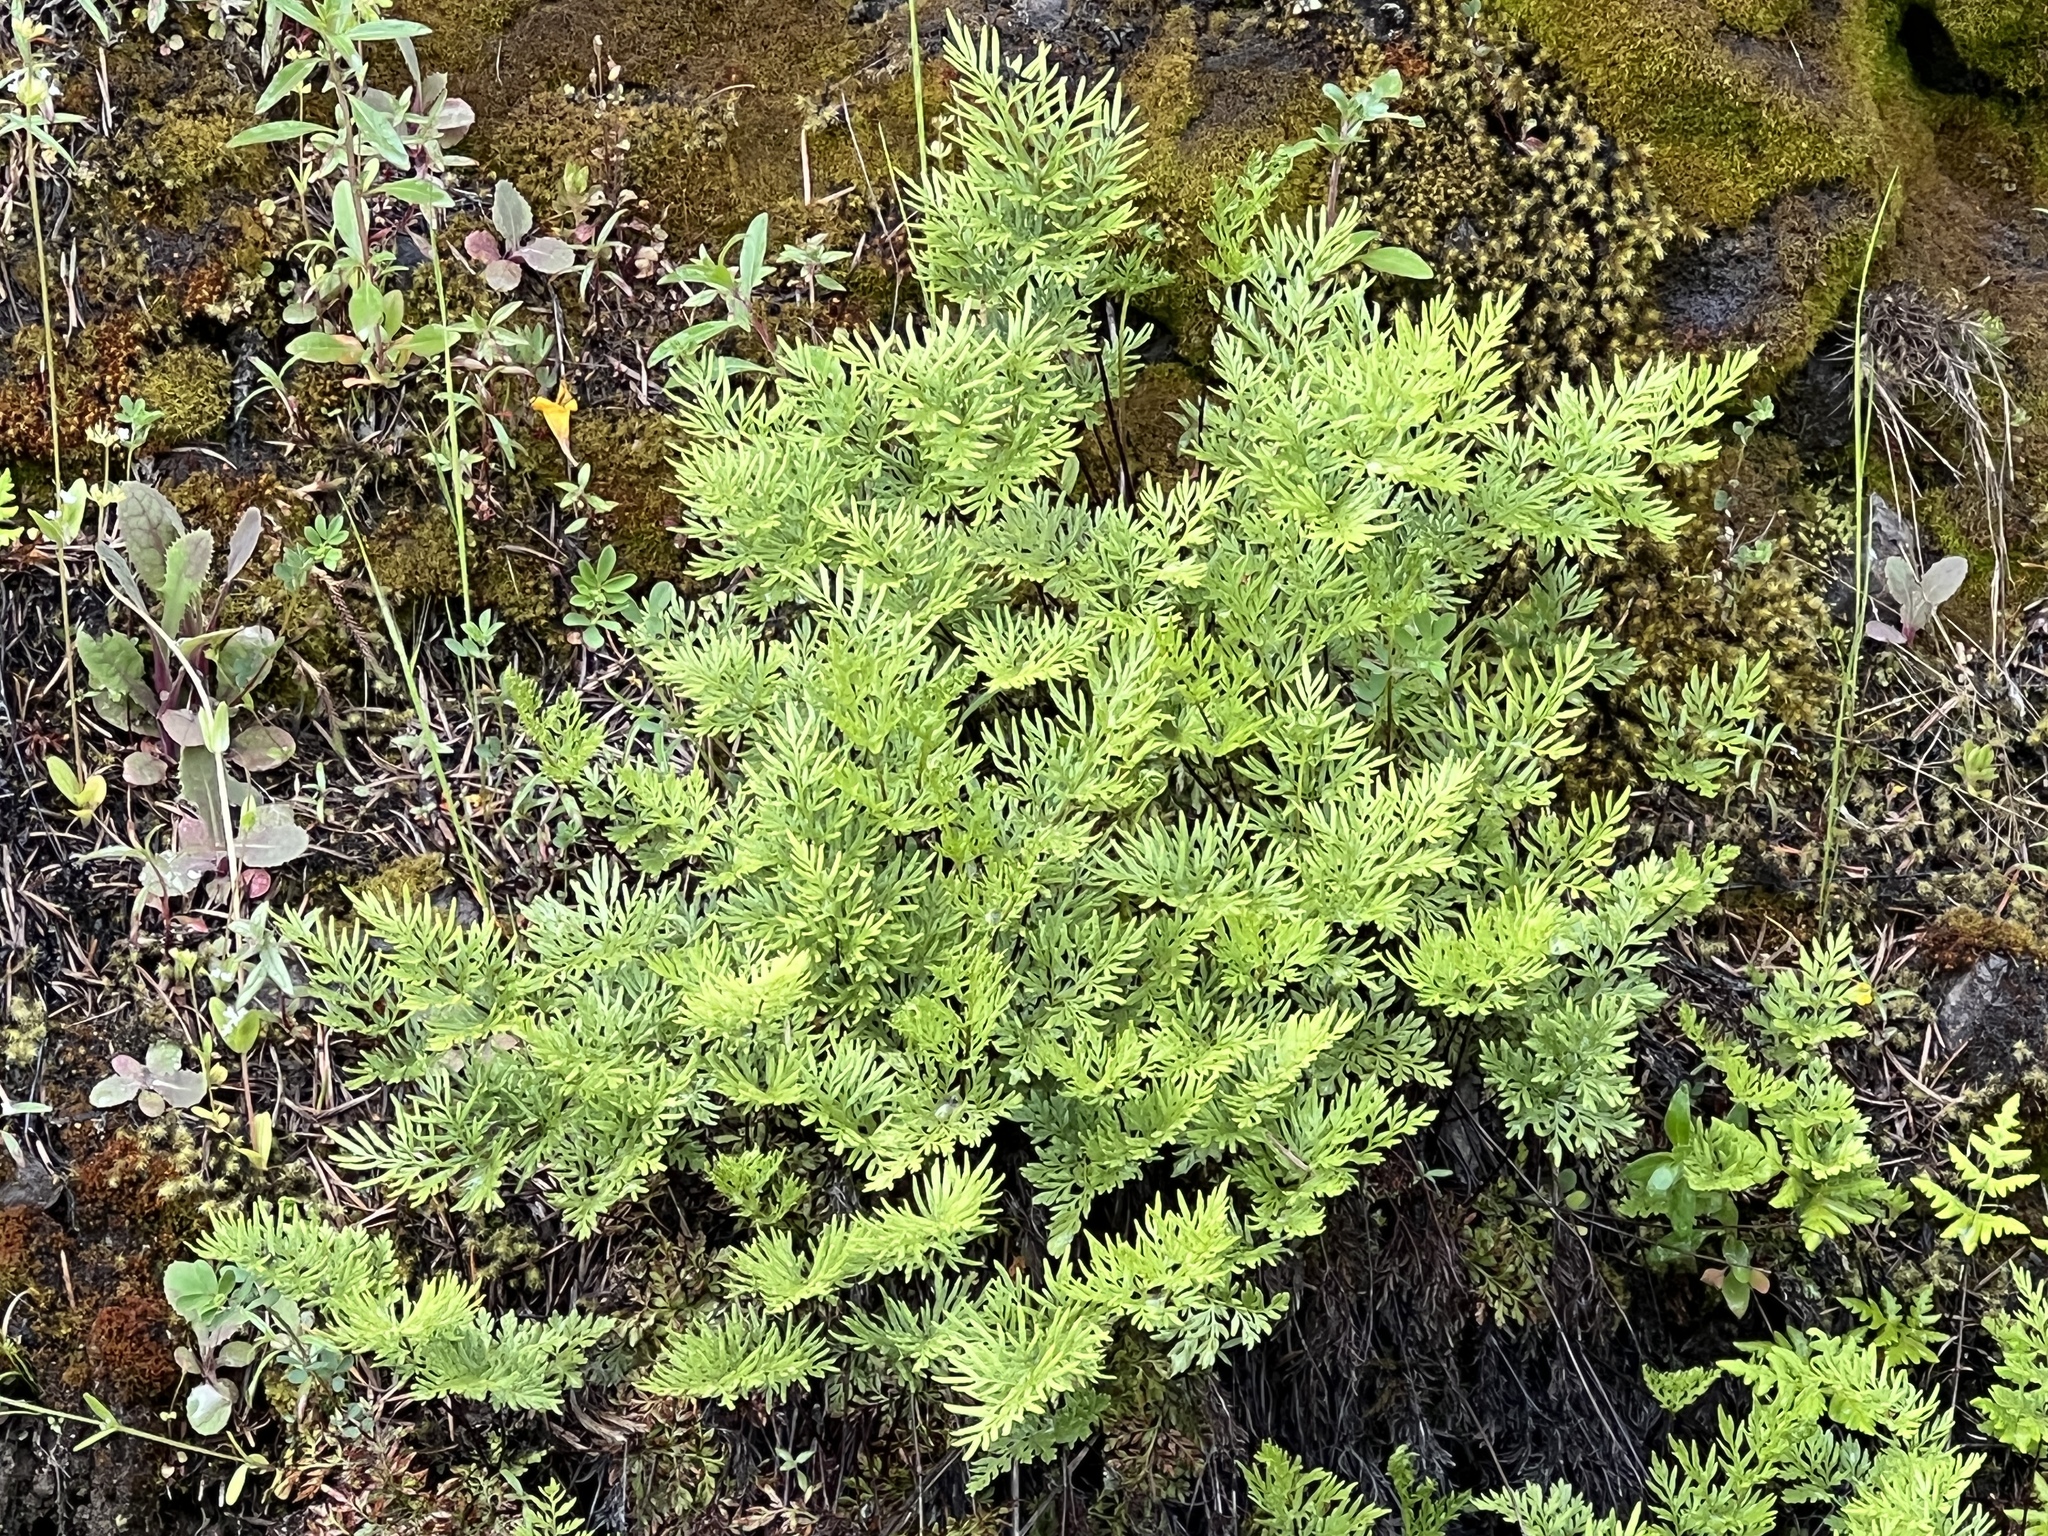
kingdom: Plantae
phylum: Tracheophyta
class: Polypodiopsida
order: Polypodiales
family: Pteridaceae
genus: Aspidotis
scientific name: Aspidotis densa
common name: Indian's dream
